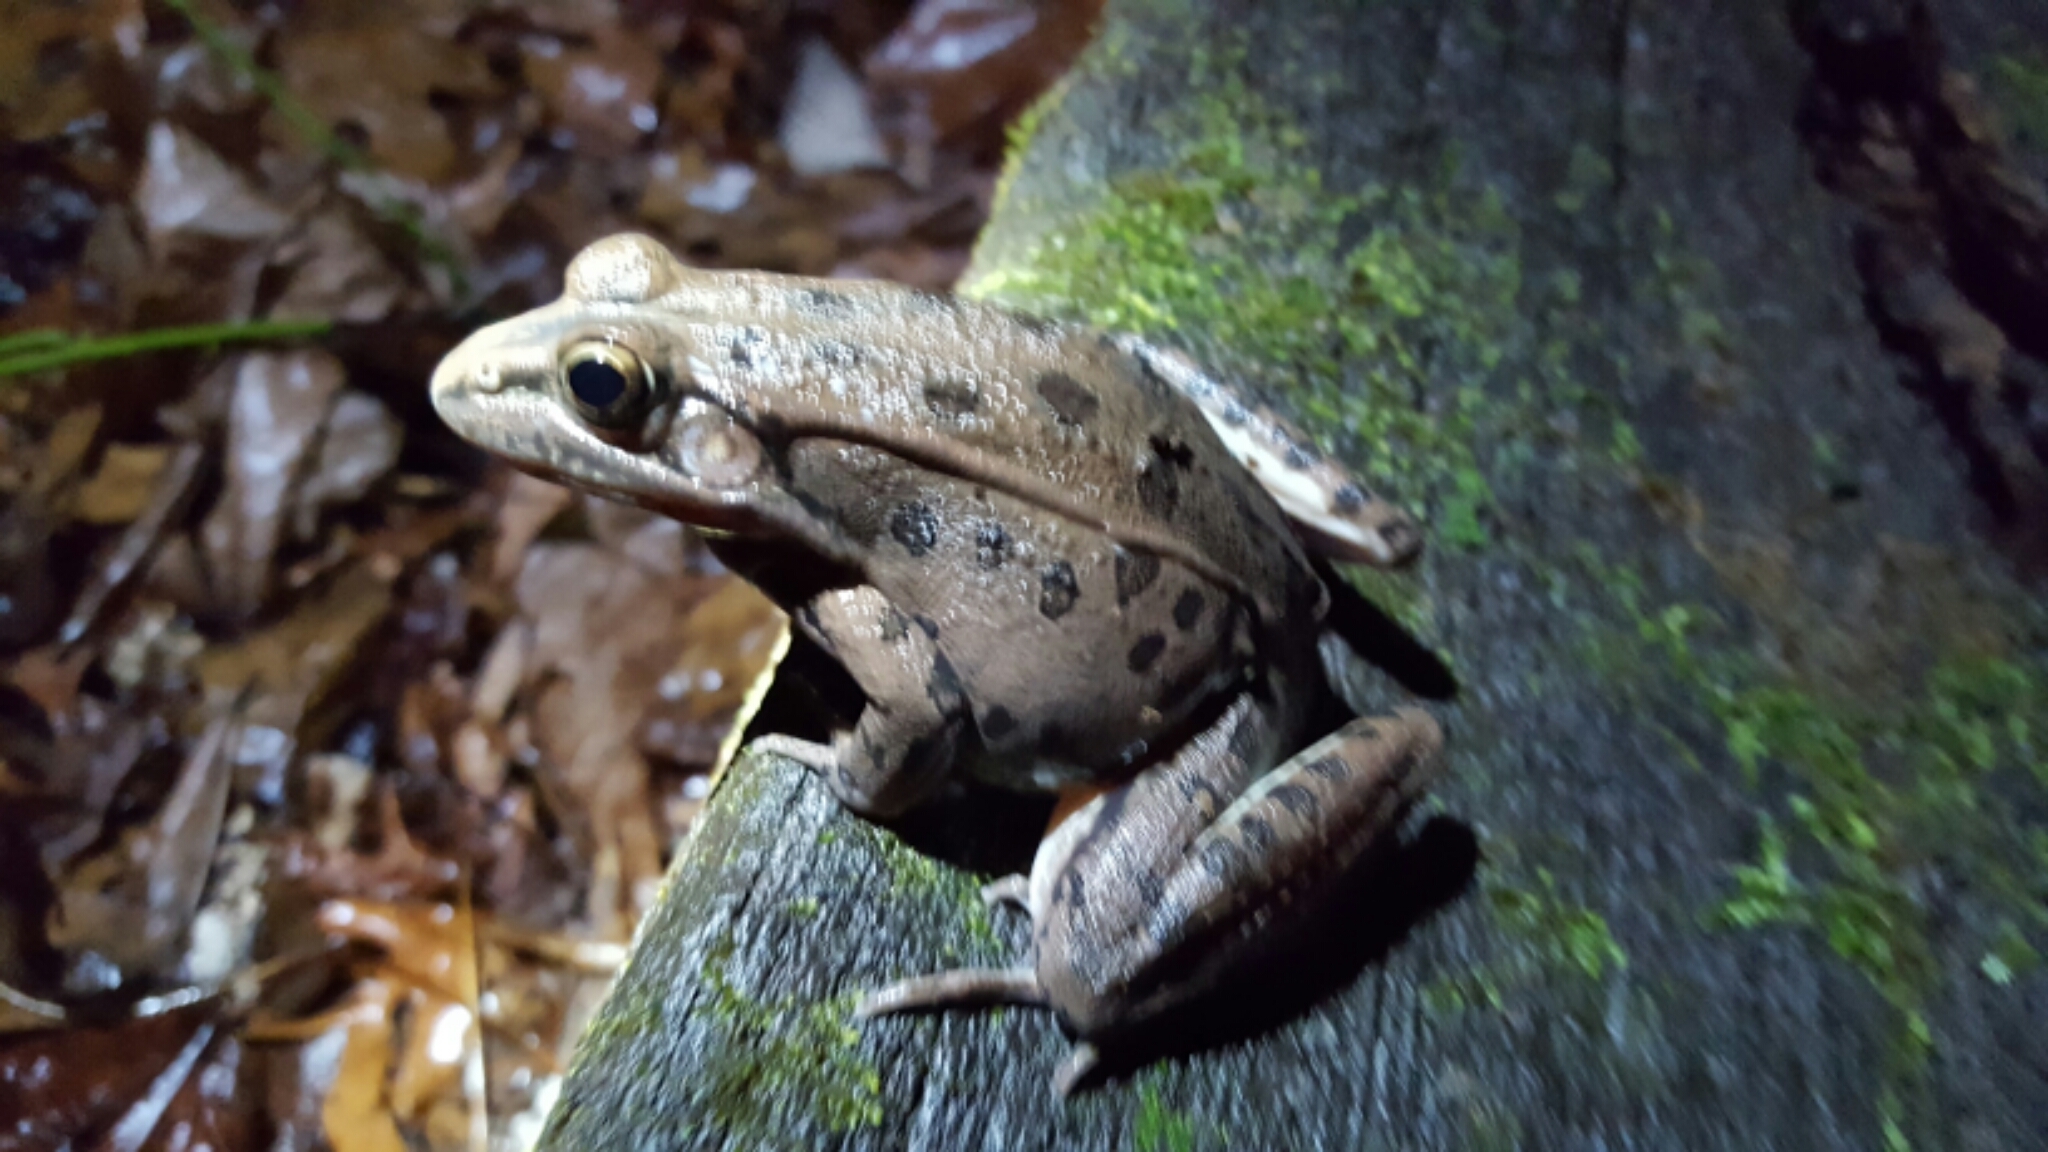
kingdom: Animalia
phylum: Chordata
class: Amphibia
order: Anura
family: Ranidae
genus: Lithobates
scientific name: Lithobates sphenocephalus
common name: Southern leopard frog
